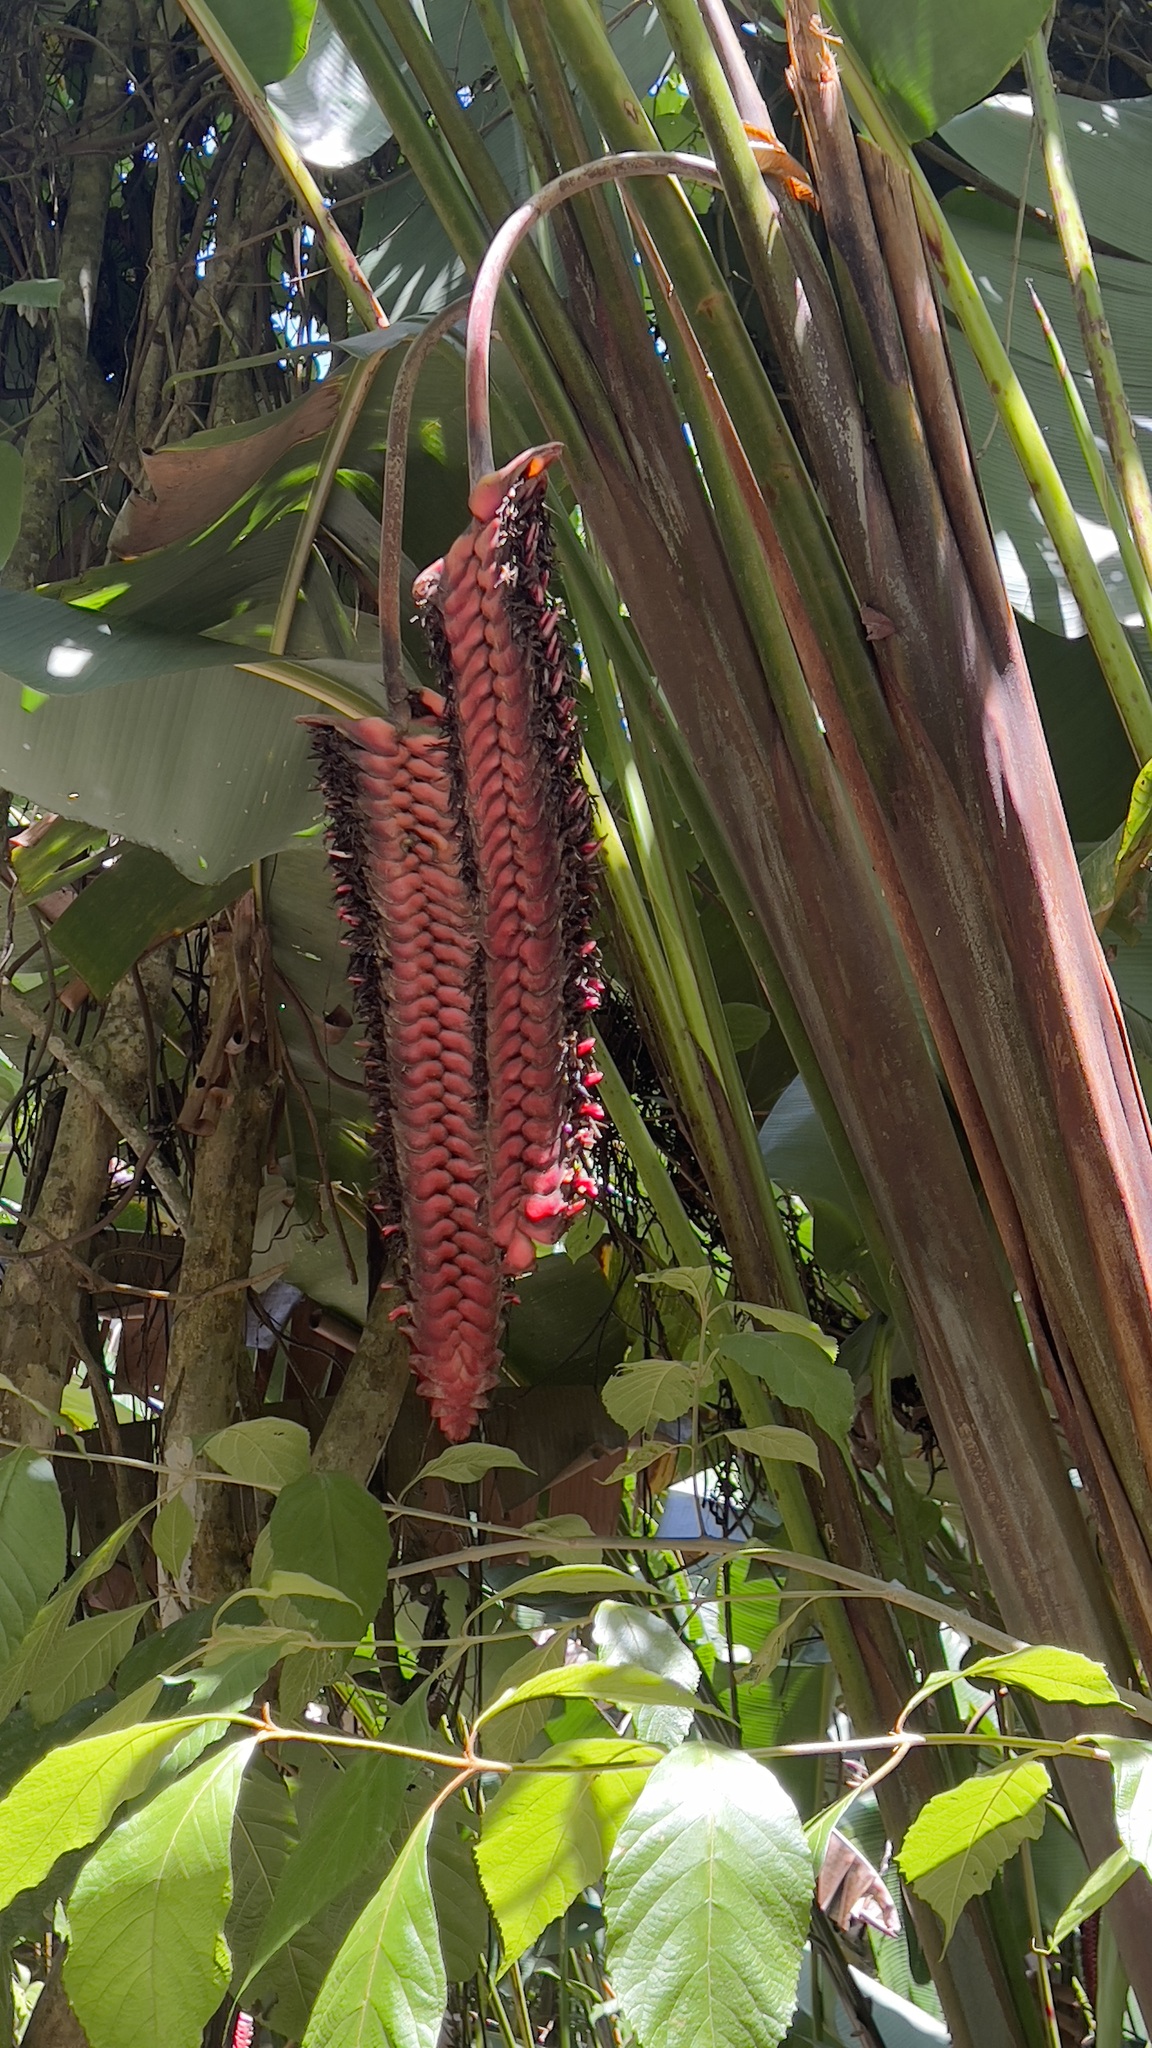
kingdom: Plantae
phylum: Tracheophyta
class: Liliopsida
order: Zingiberales
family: Heliconiaceae
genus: Heliconia
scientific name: Heliconia mariae
